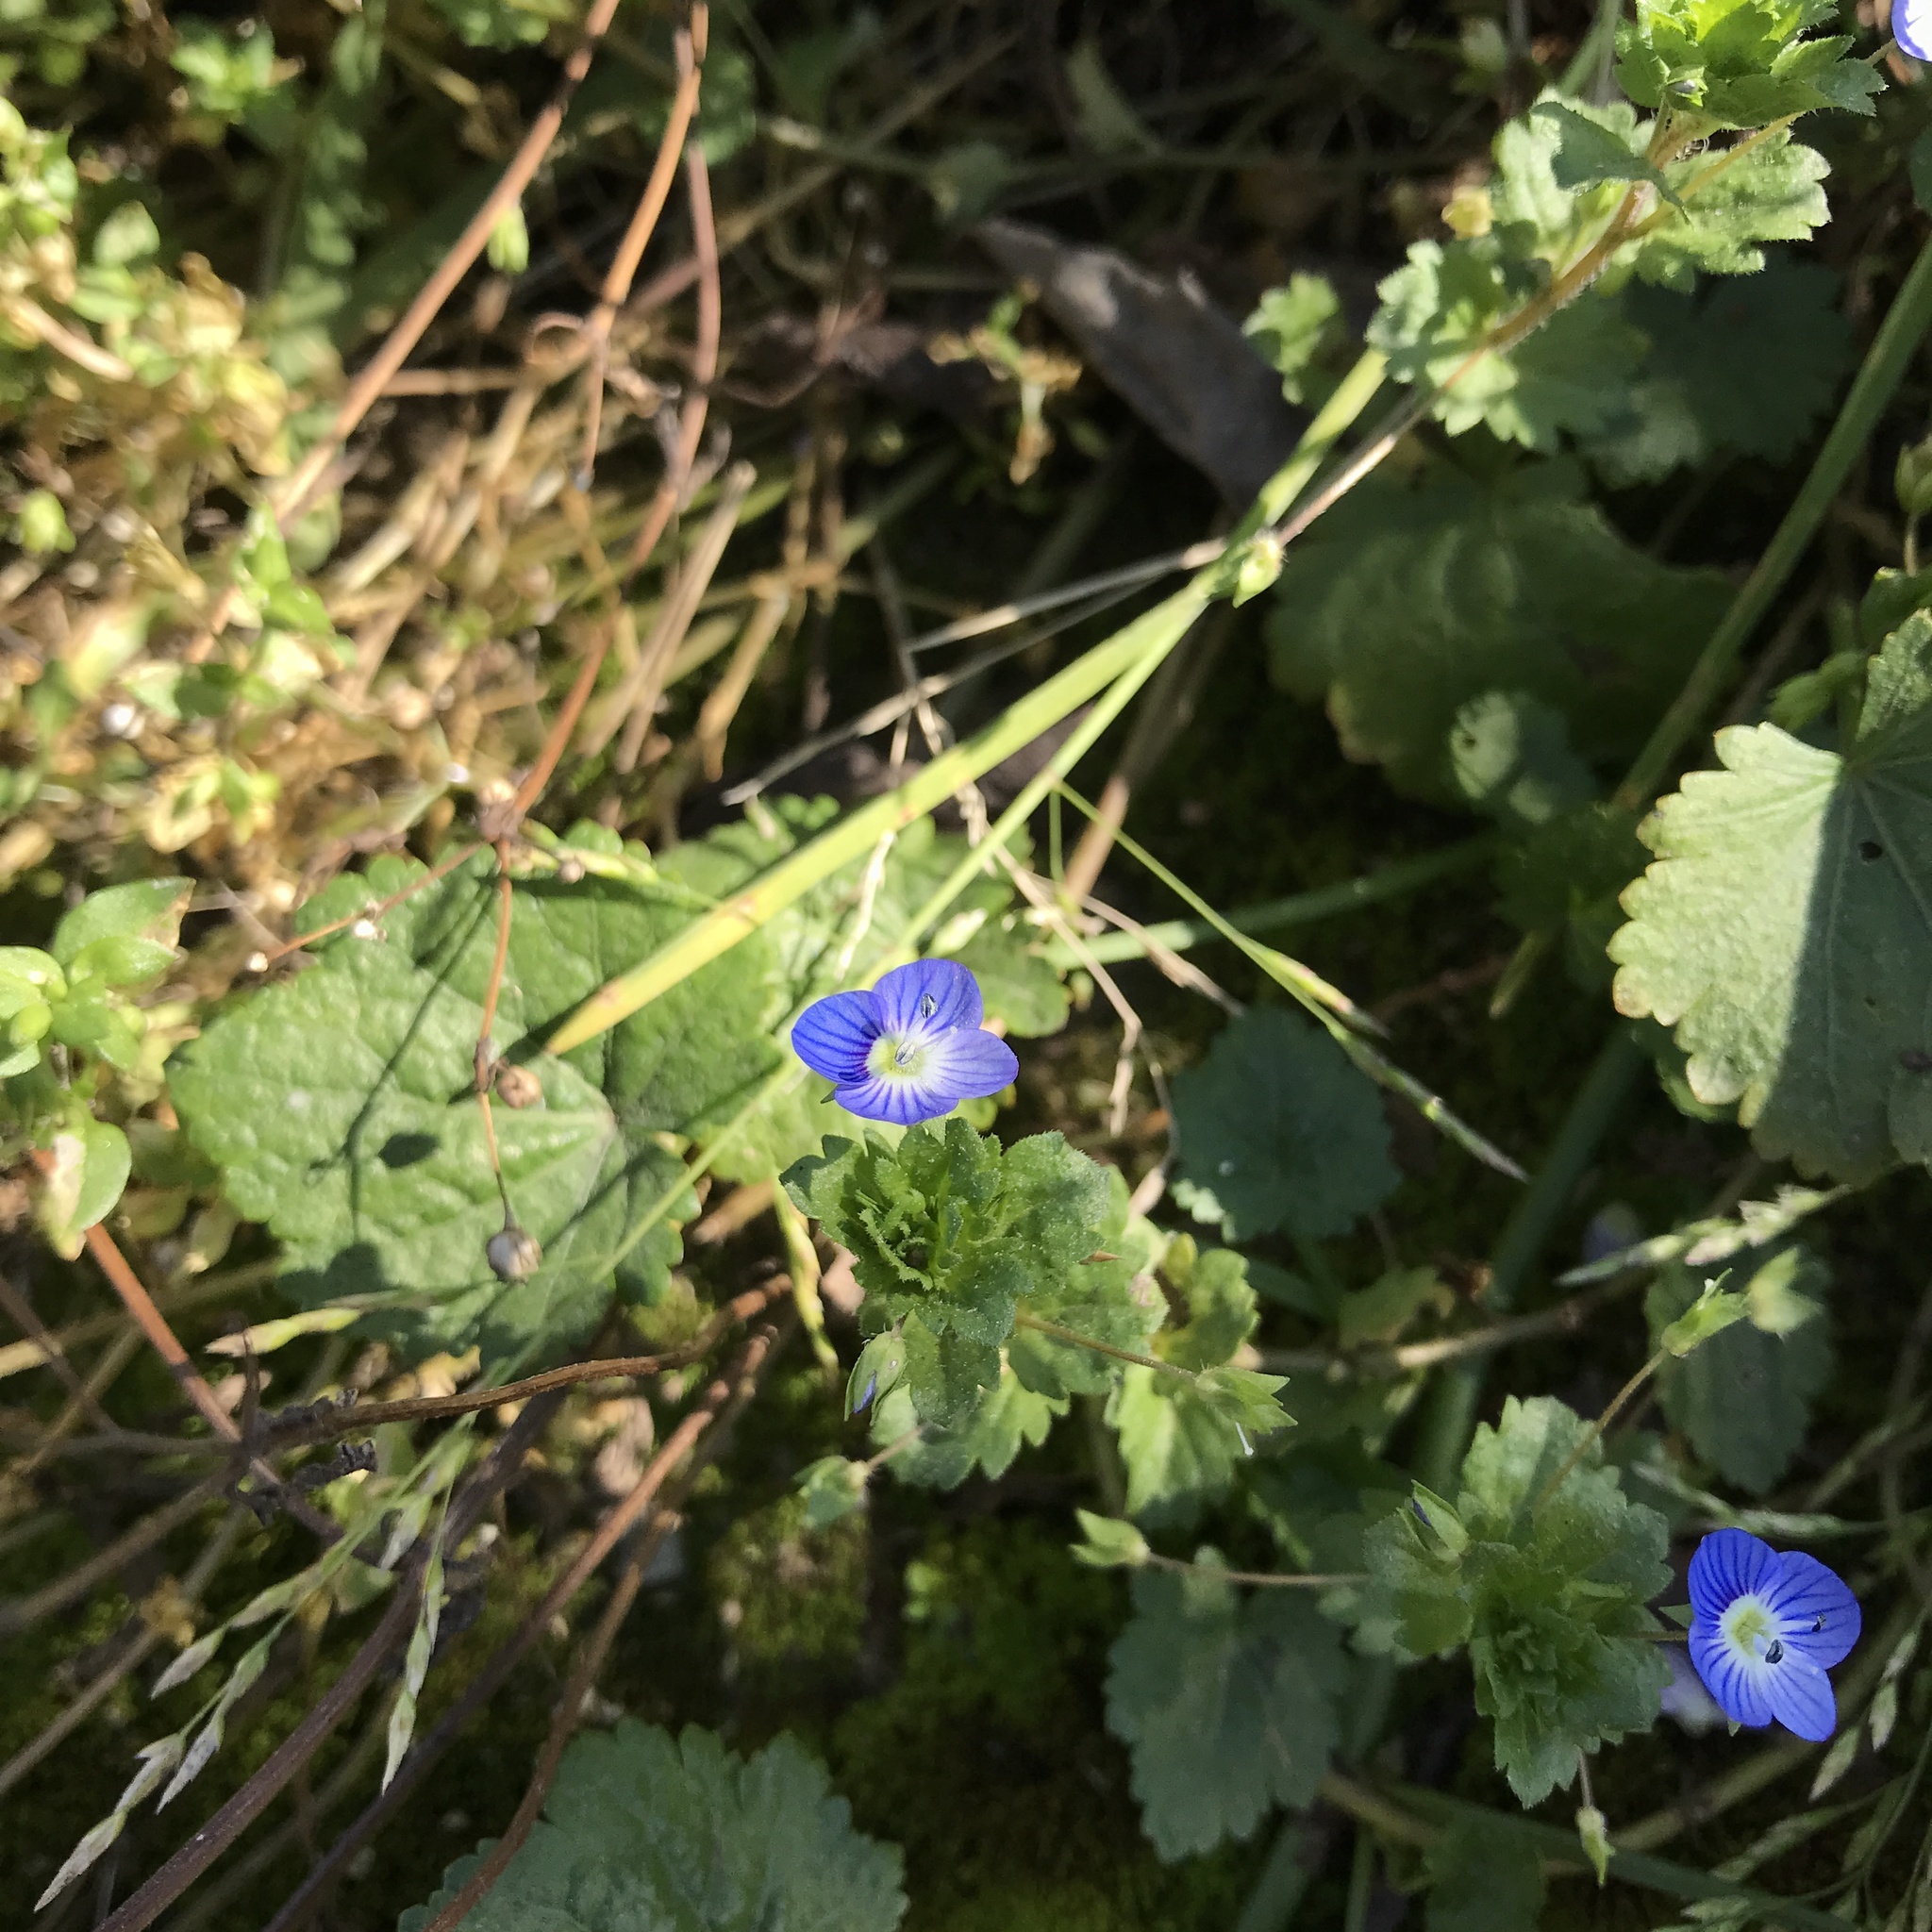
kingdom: Plantae
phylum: Tracheophyta
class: Magnoliopsida
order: Lamiales
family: Plantaginaceae
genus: Veronica
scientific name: Veronica persica
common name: Common field-speedwell
